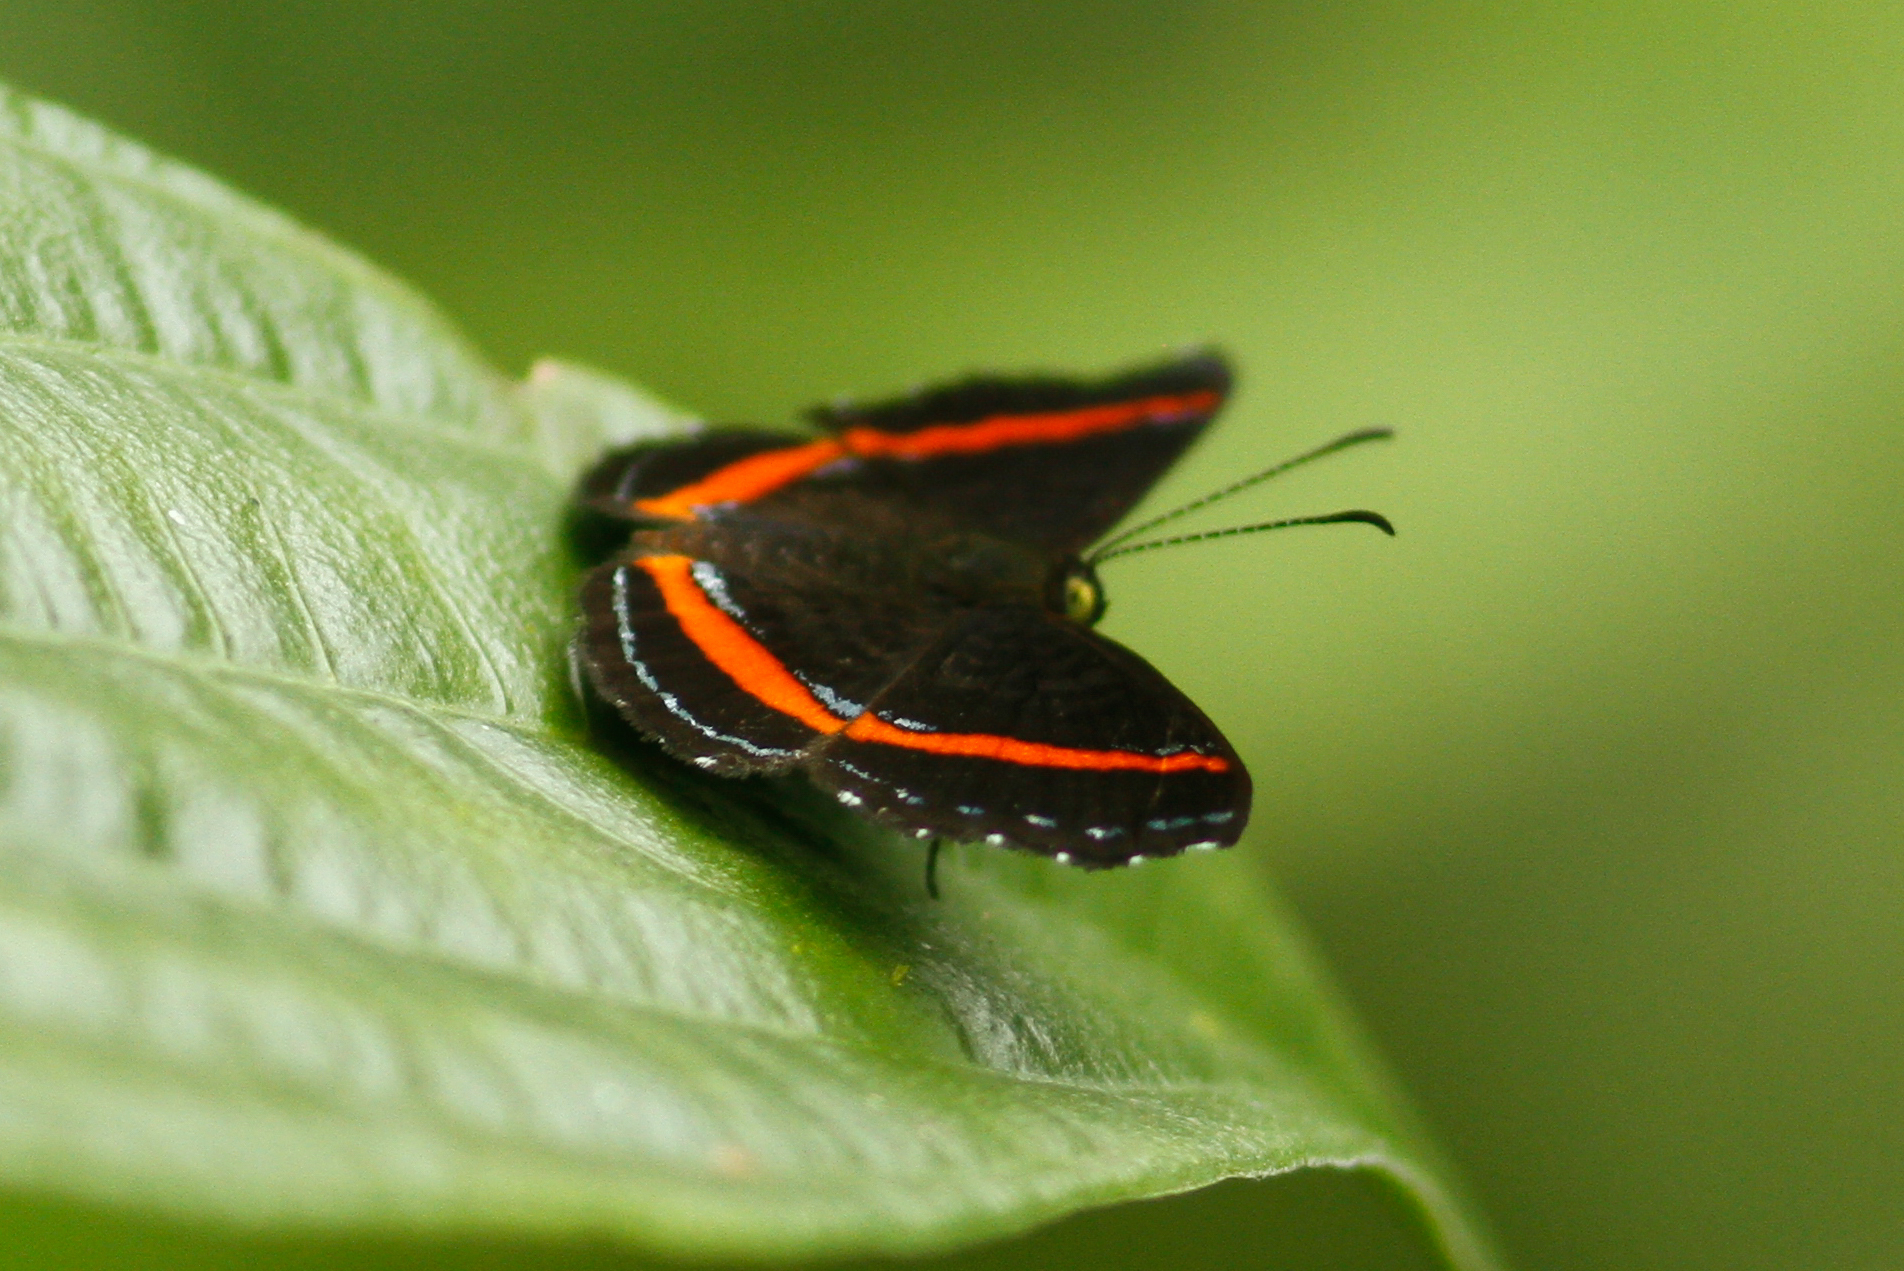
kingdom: Animalia
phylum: Arthropoda
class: Insecta
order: Lepidoptera
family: Riodinidae
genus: Crocozona
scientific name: Crocozona coecias
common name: Orange-banded gem
